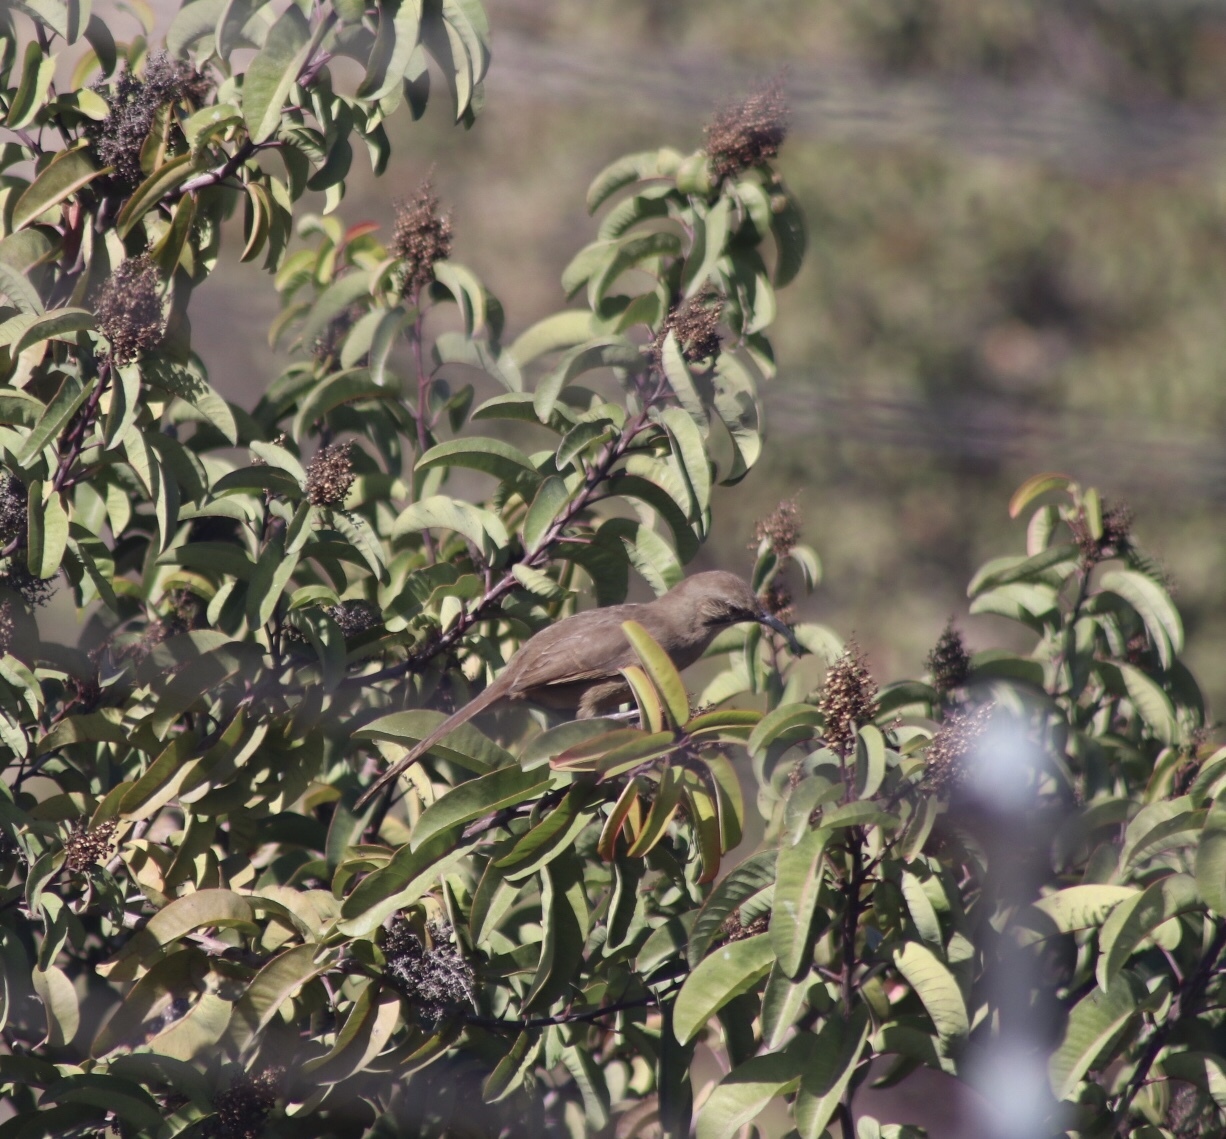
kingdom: Animalia
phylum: Chordata
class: Aves
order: Passeriformes
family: Mimidae
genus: Toxostoma
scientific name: Toxostoma redivivum
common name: California thrasher
